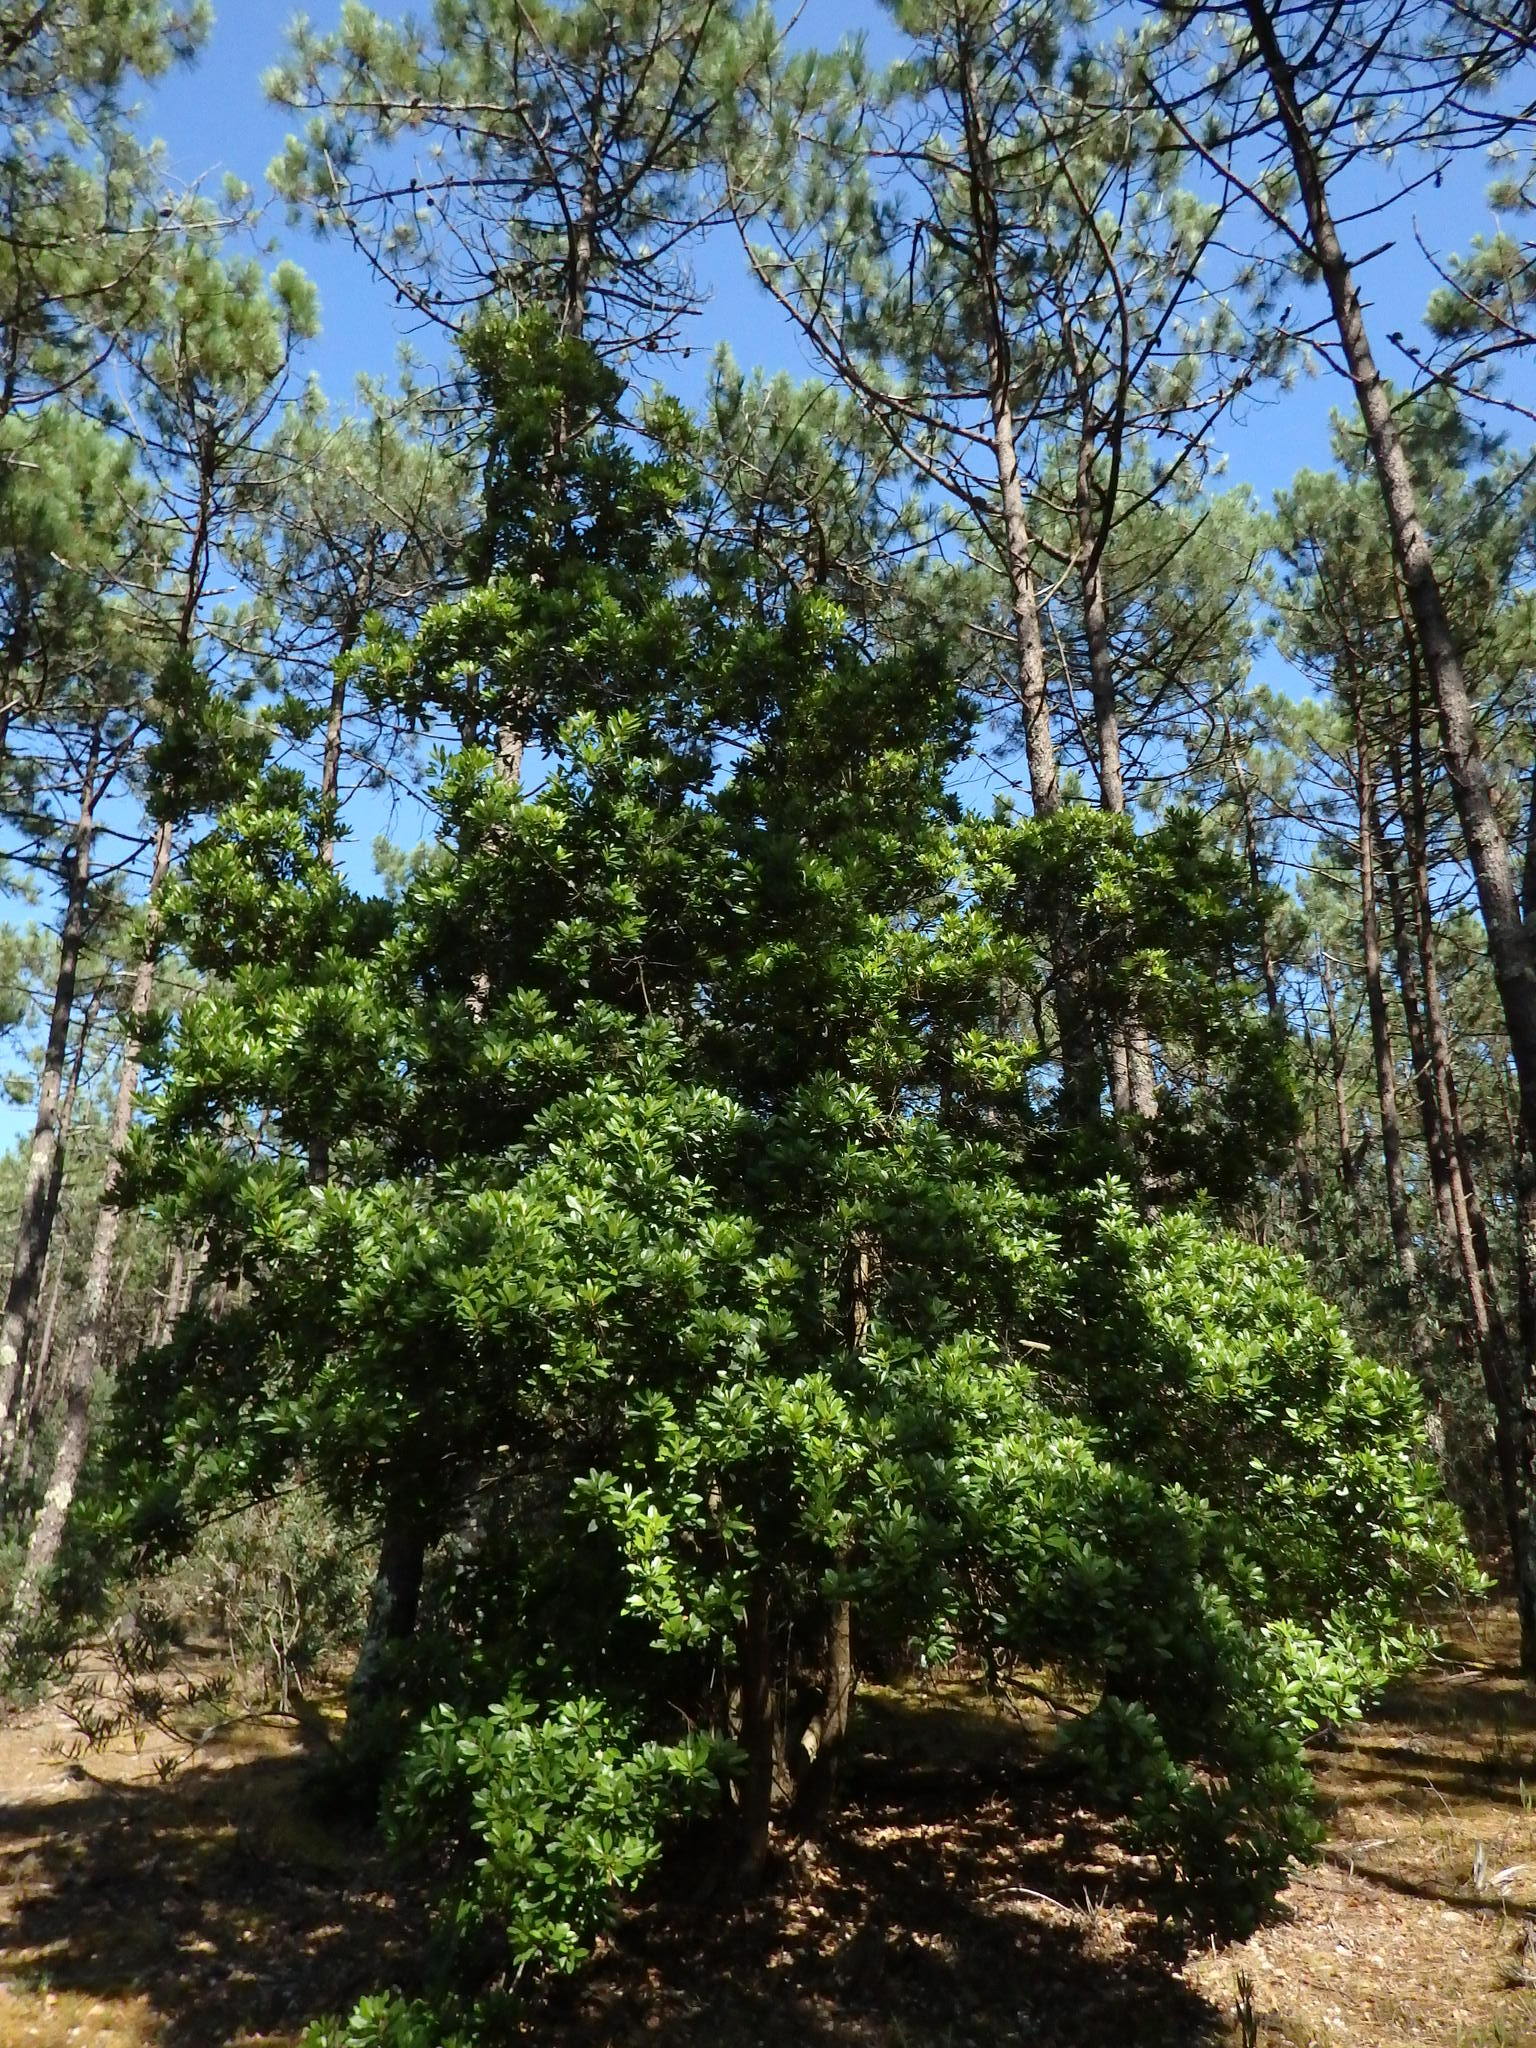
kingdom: Plantae
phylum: Tracheophyta
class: Magnoliopsida
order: Fagales
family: Myricaceae
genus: Morella
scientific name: Morella faya
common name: Firetree
